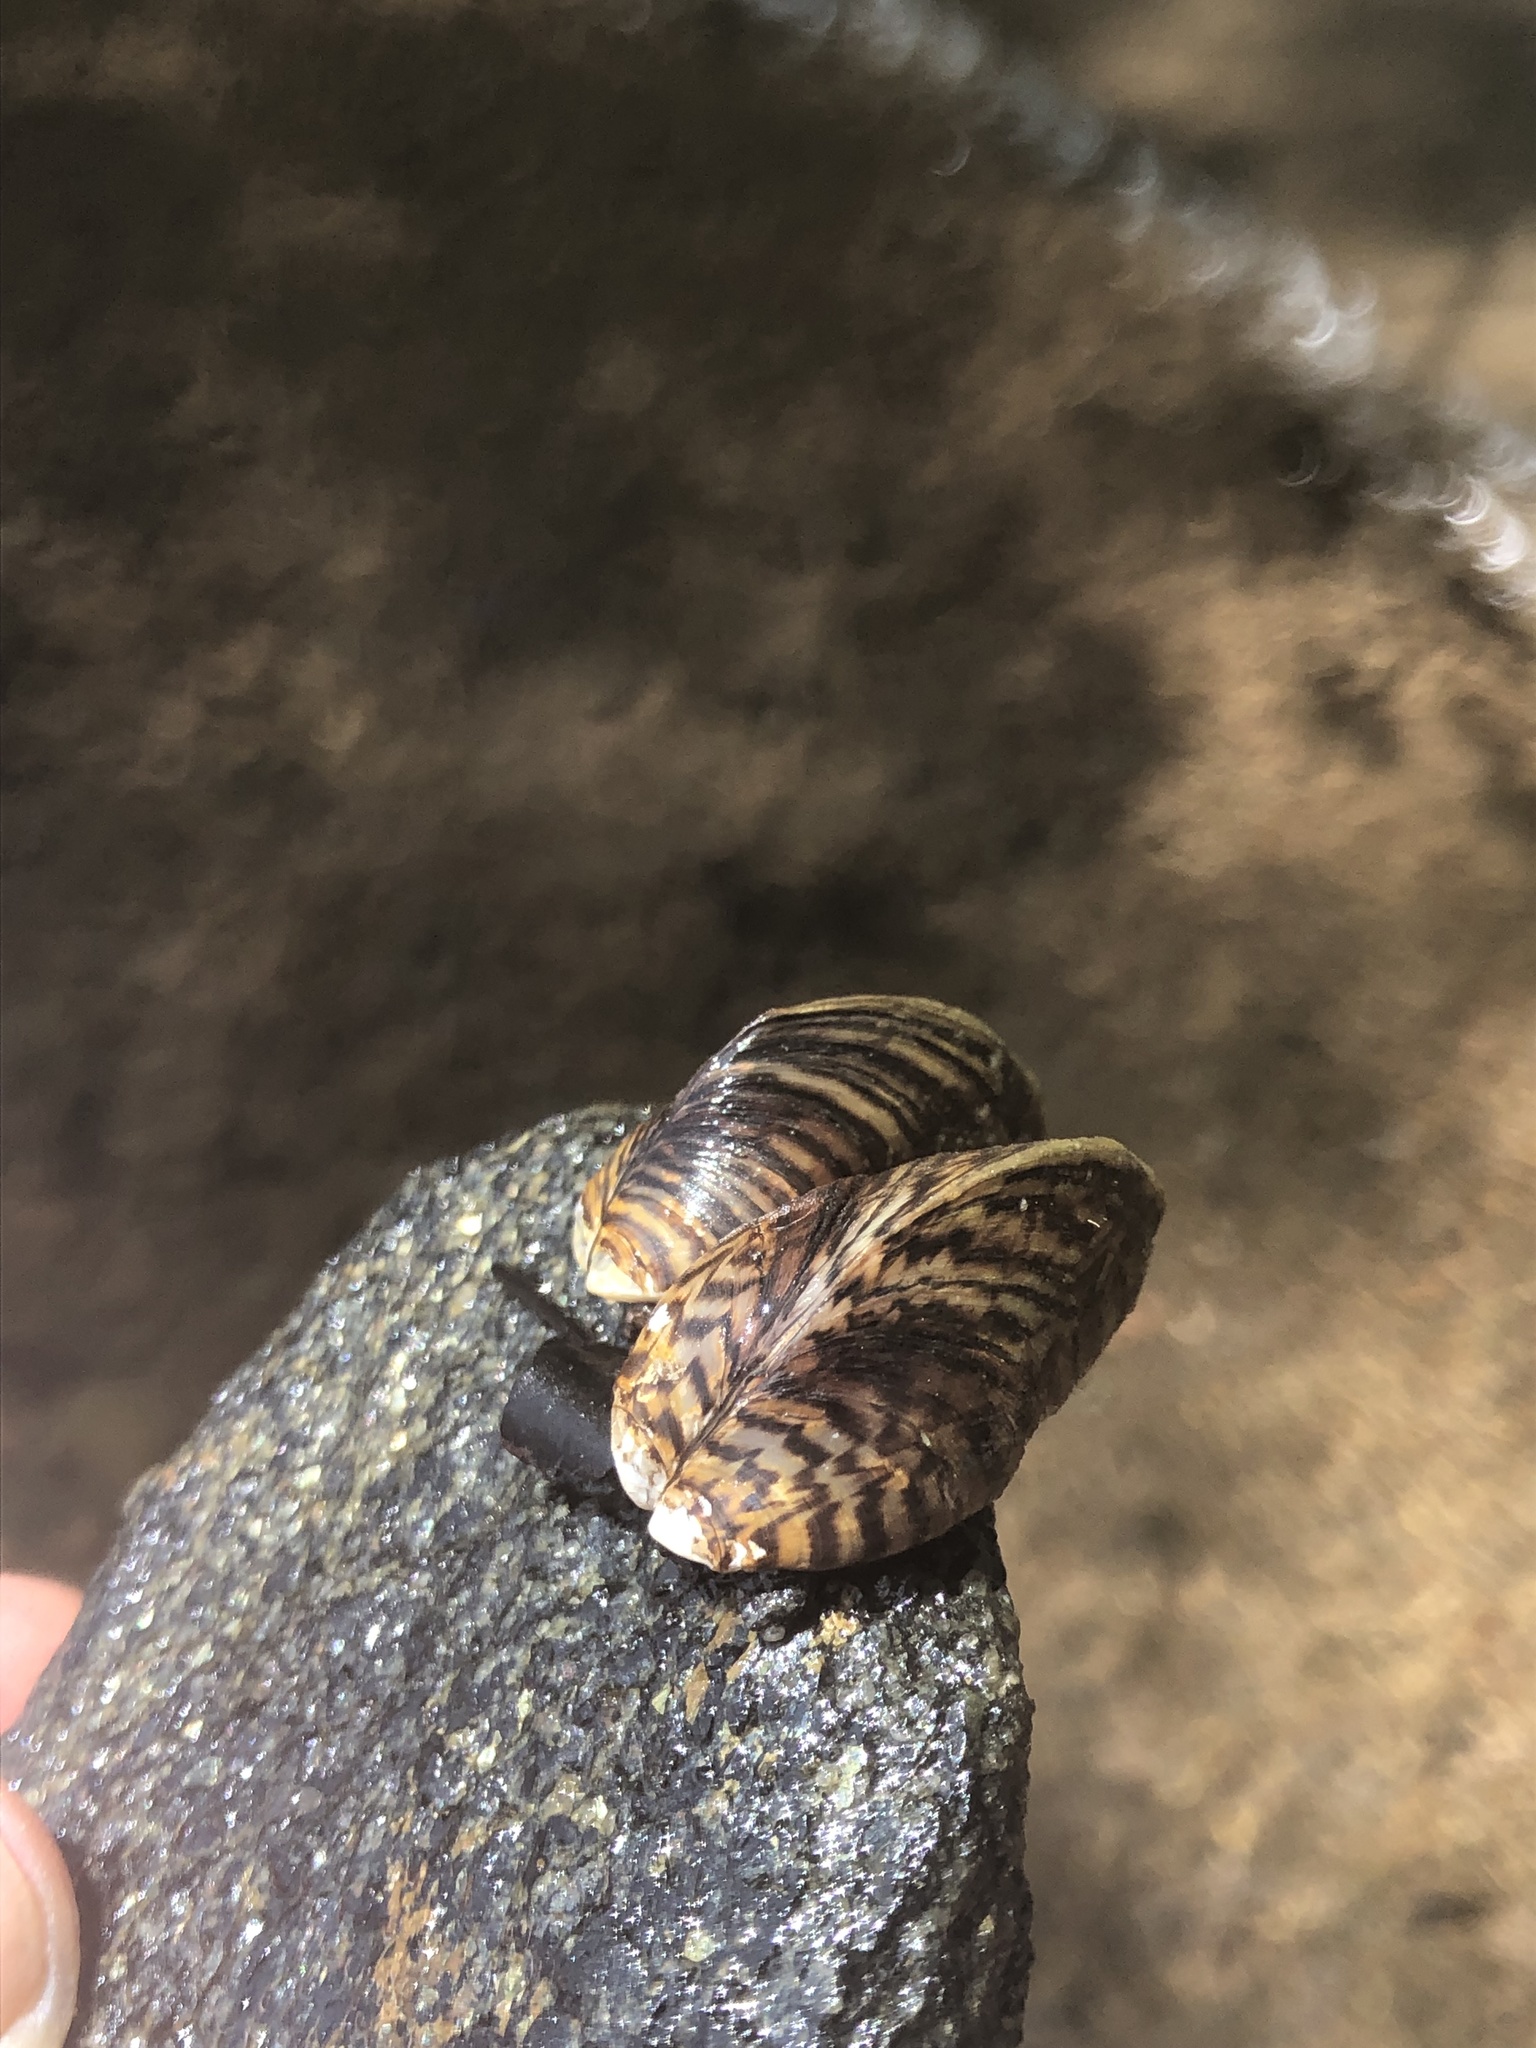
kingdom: Animalia
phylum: Mollusca
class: Bivalvia
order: Myida
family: Dreissenidae
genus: Dreissena
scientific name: Dreissena polymorpha
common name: Zebra mussel
